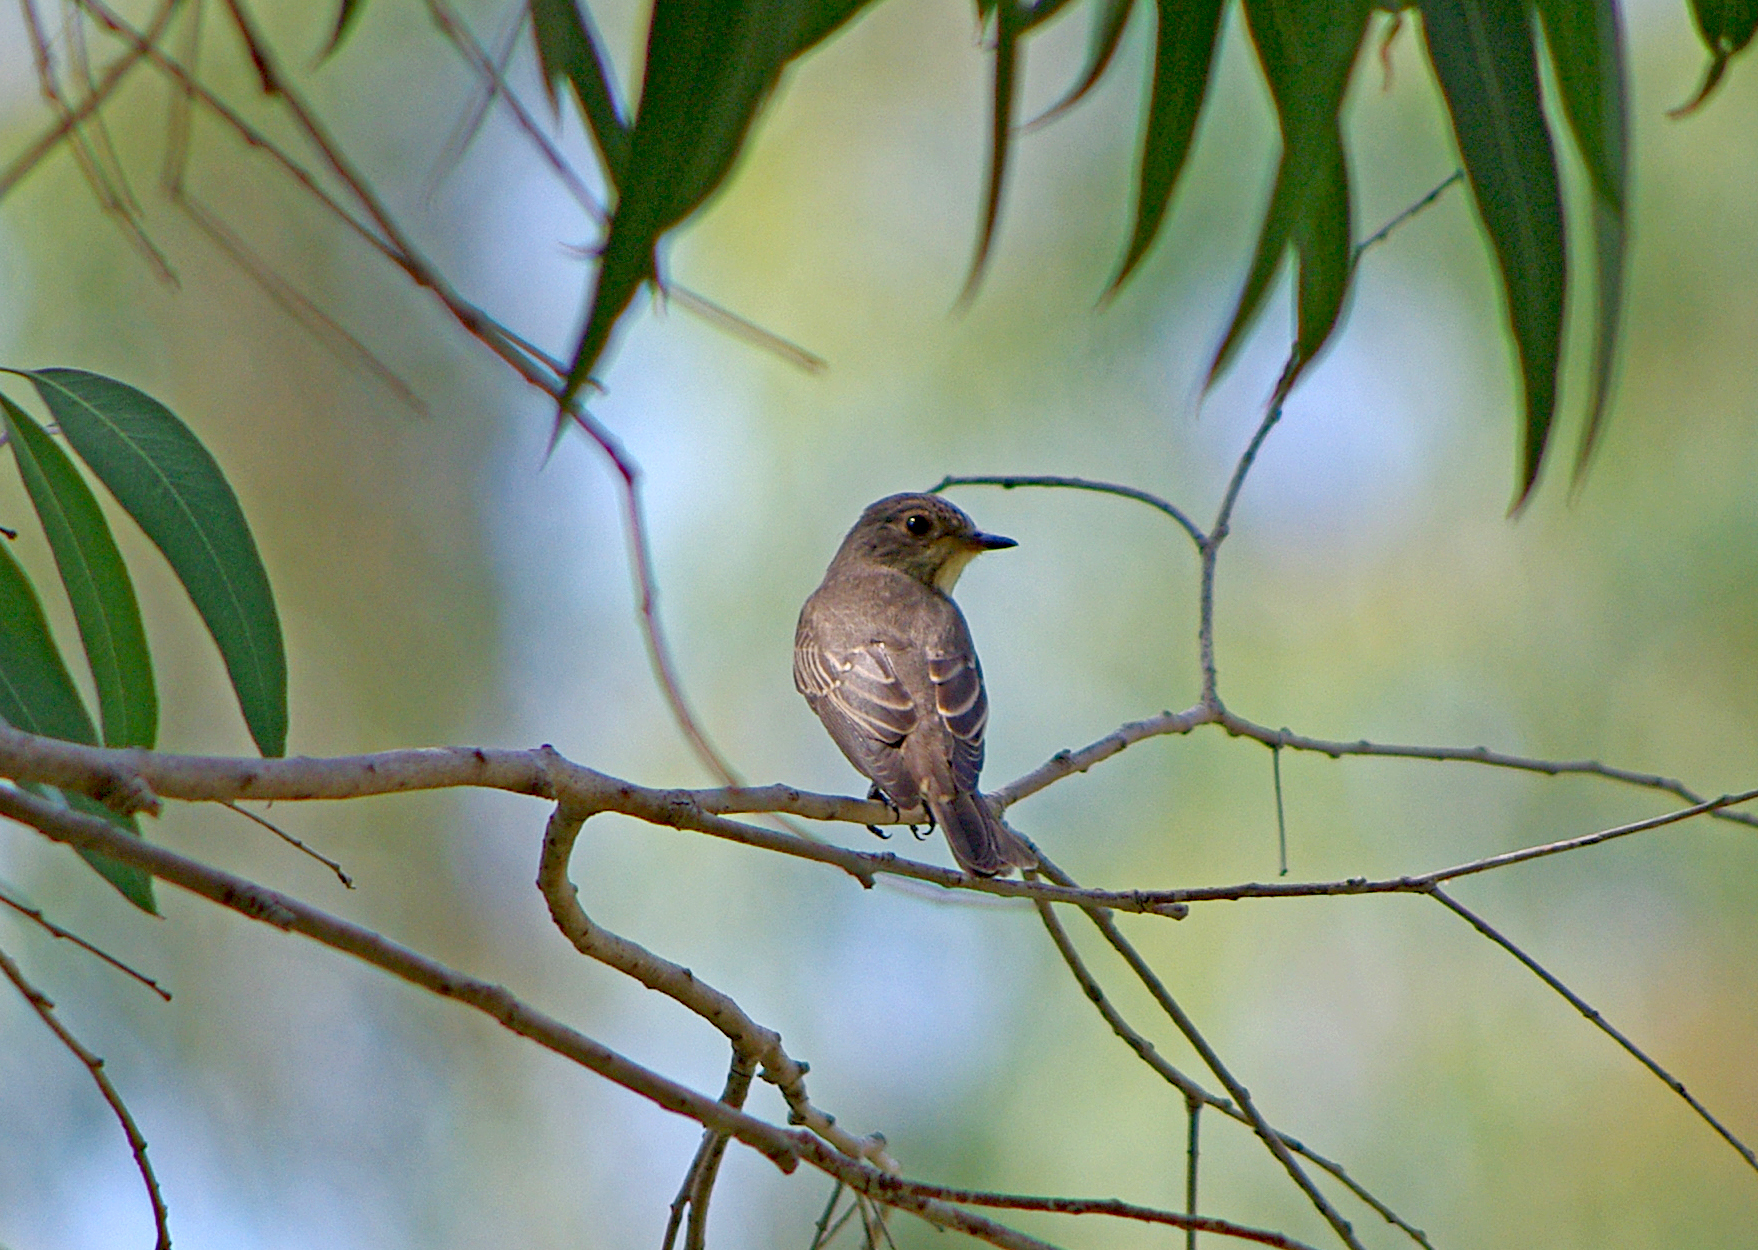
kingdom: Animalia
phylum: Chordata
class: Aves
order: Passeriformes
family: Muscicapidae
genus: Muscicapa
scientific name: Muscicapa striata
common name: Spotted flycatcher
